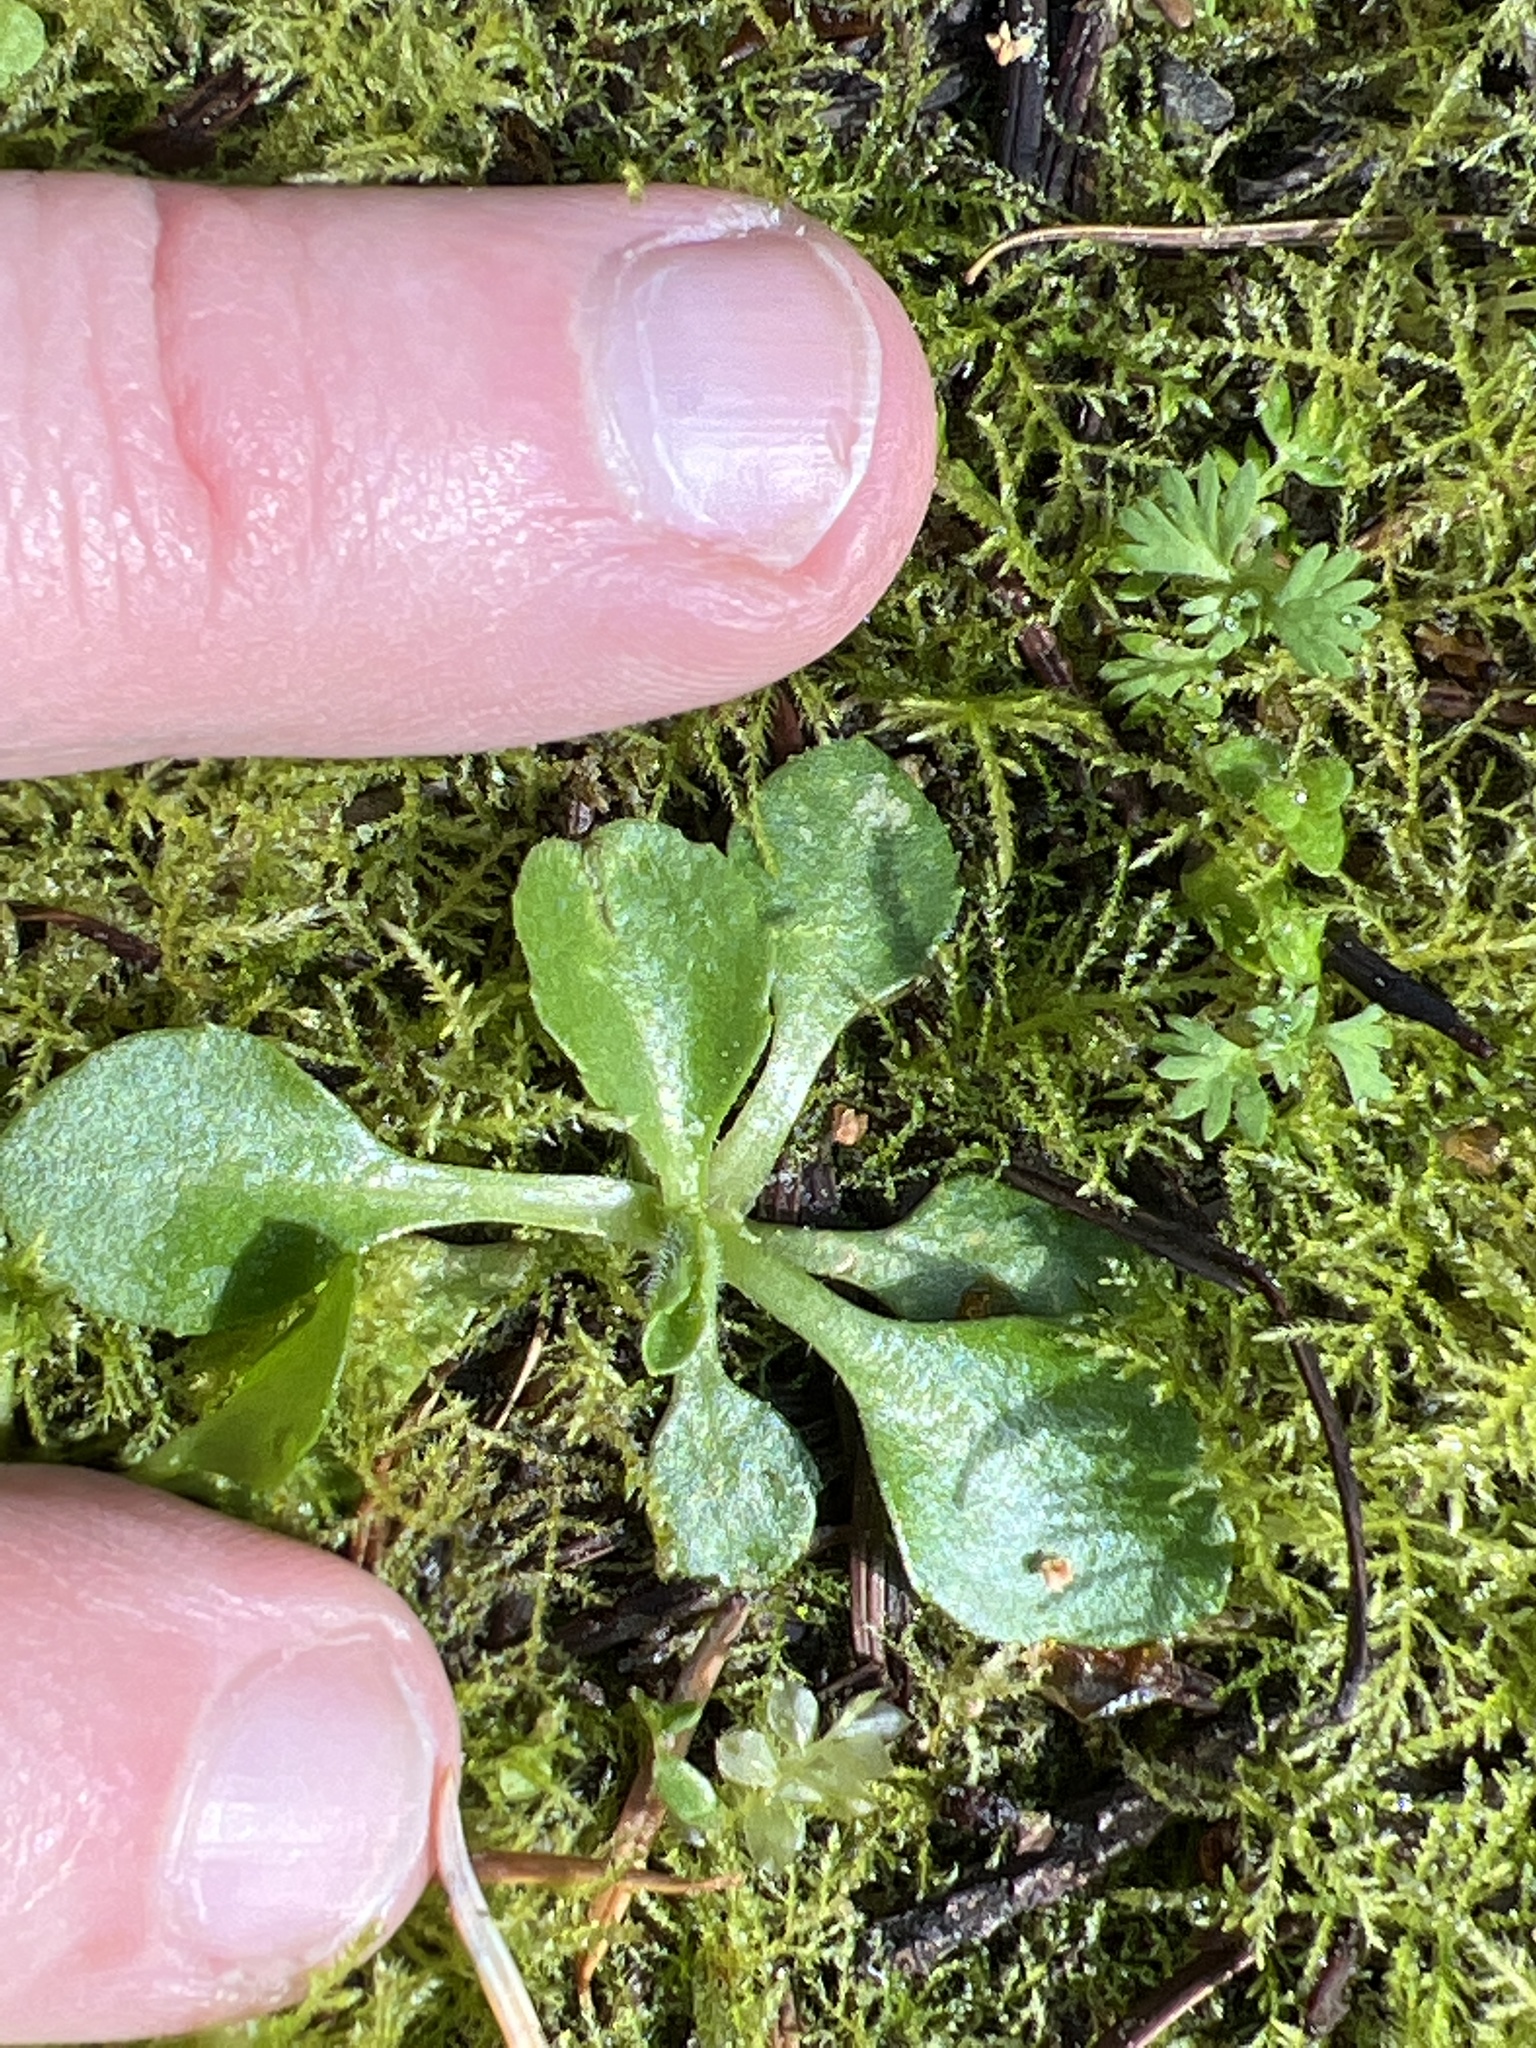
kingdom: Plantae
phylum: Tracheophyta
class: Magnoliopsida
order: Asterales
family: Asteraceae
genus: Bellis
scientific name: Bellis perennis
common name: Lawndaisy
